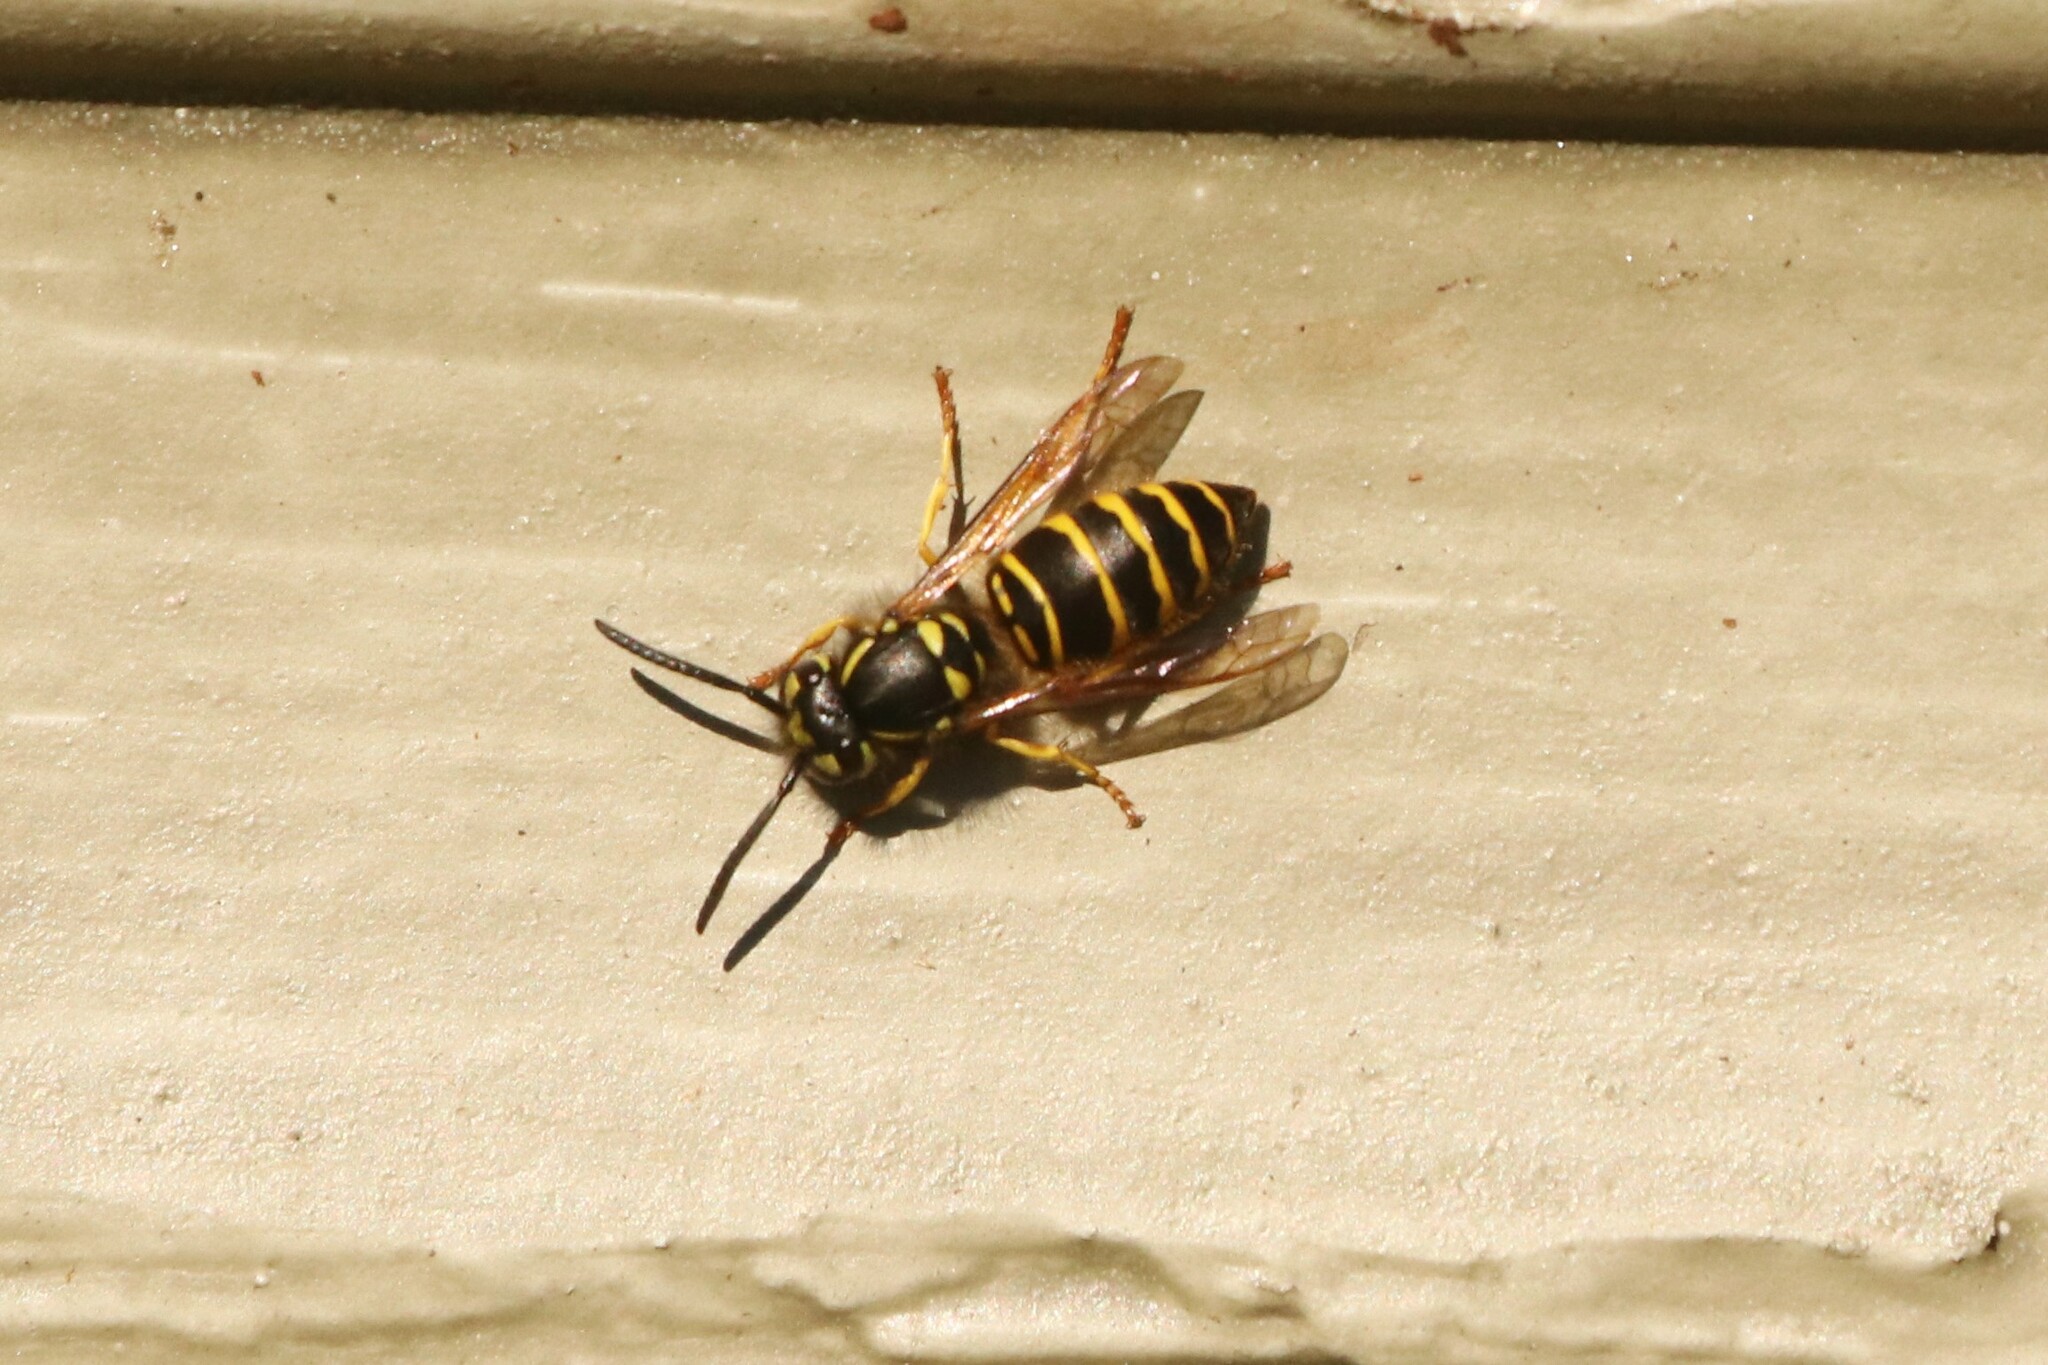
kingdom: Animalia
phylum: Arthropoda
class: Insecta
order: Hymenoptera
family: Vespidae
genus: Vespula
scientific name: Vespula maculifrons
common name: Eastern yellowjacket
